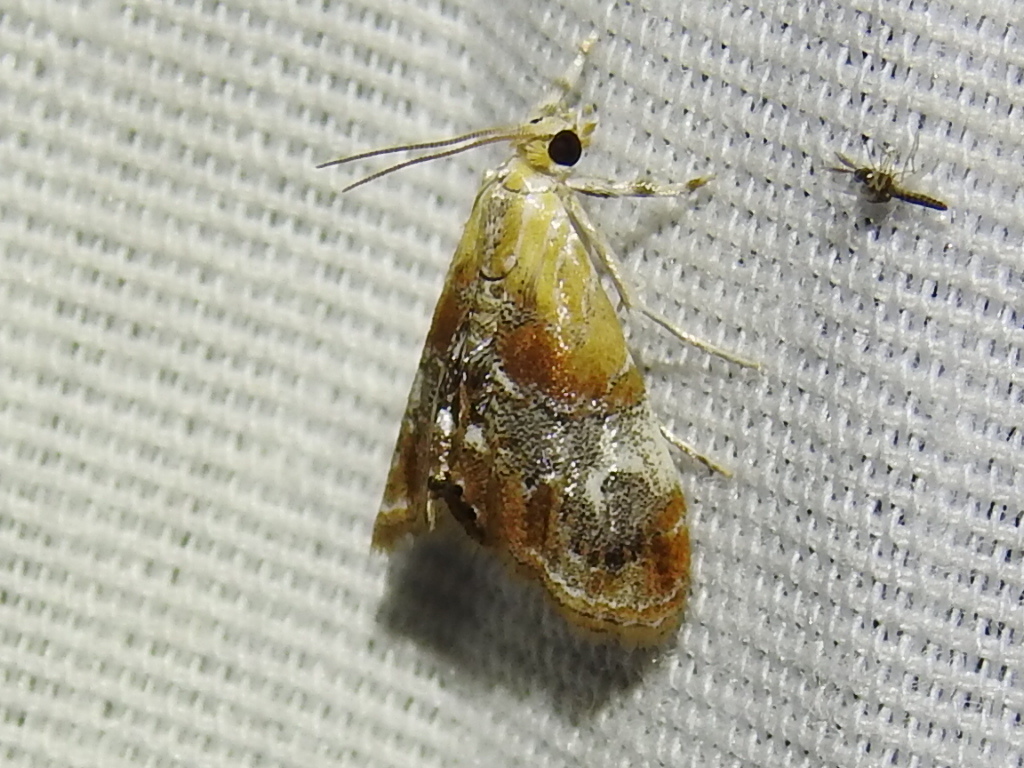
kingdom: Animalia
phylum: Arthropoda
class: Insecta
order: Lepidoptera
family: Crambidae
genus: Dicymolomia
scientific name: Dicymolomia julianalis
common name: Julia's dicymolomia moth
